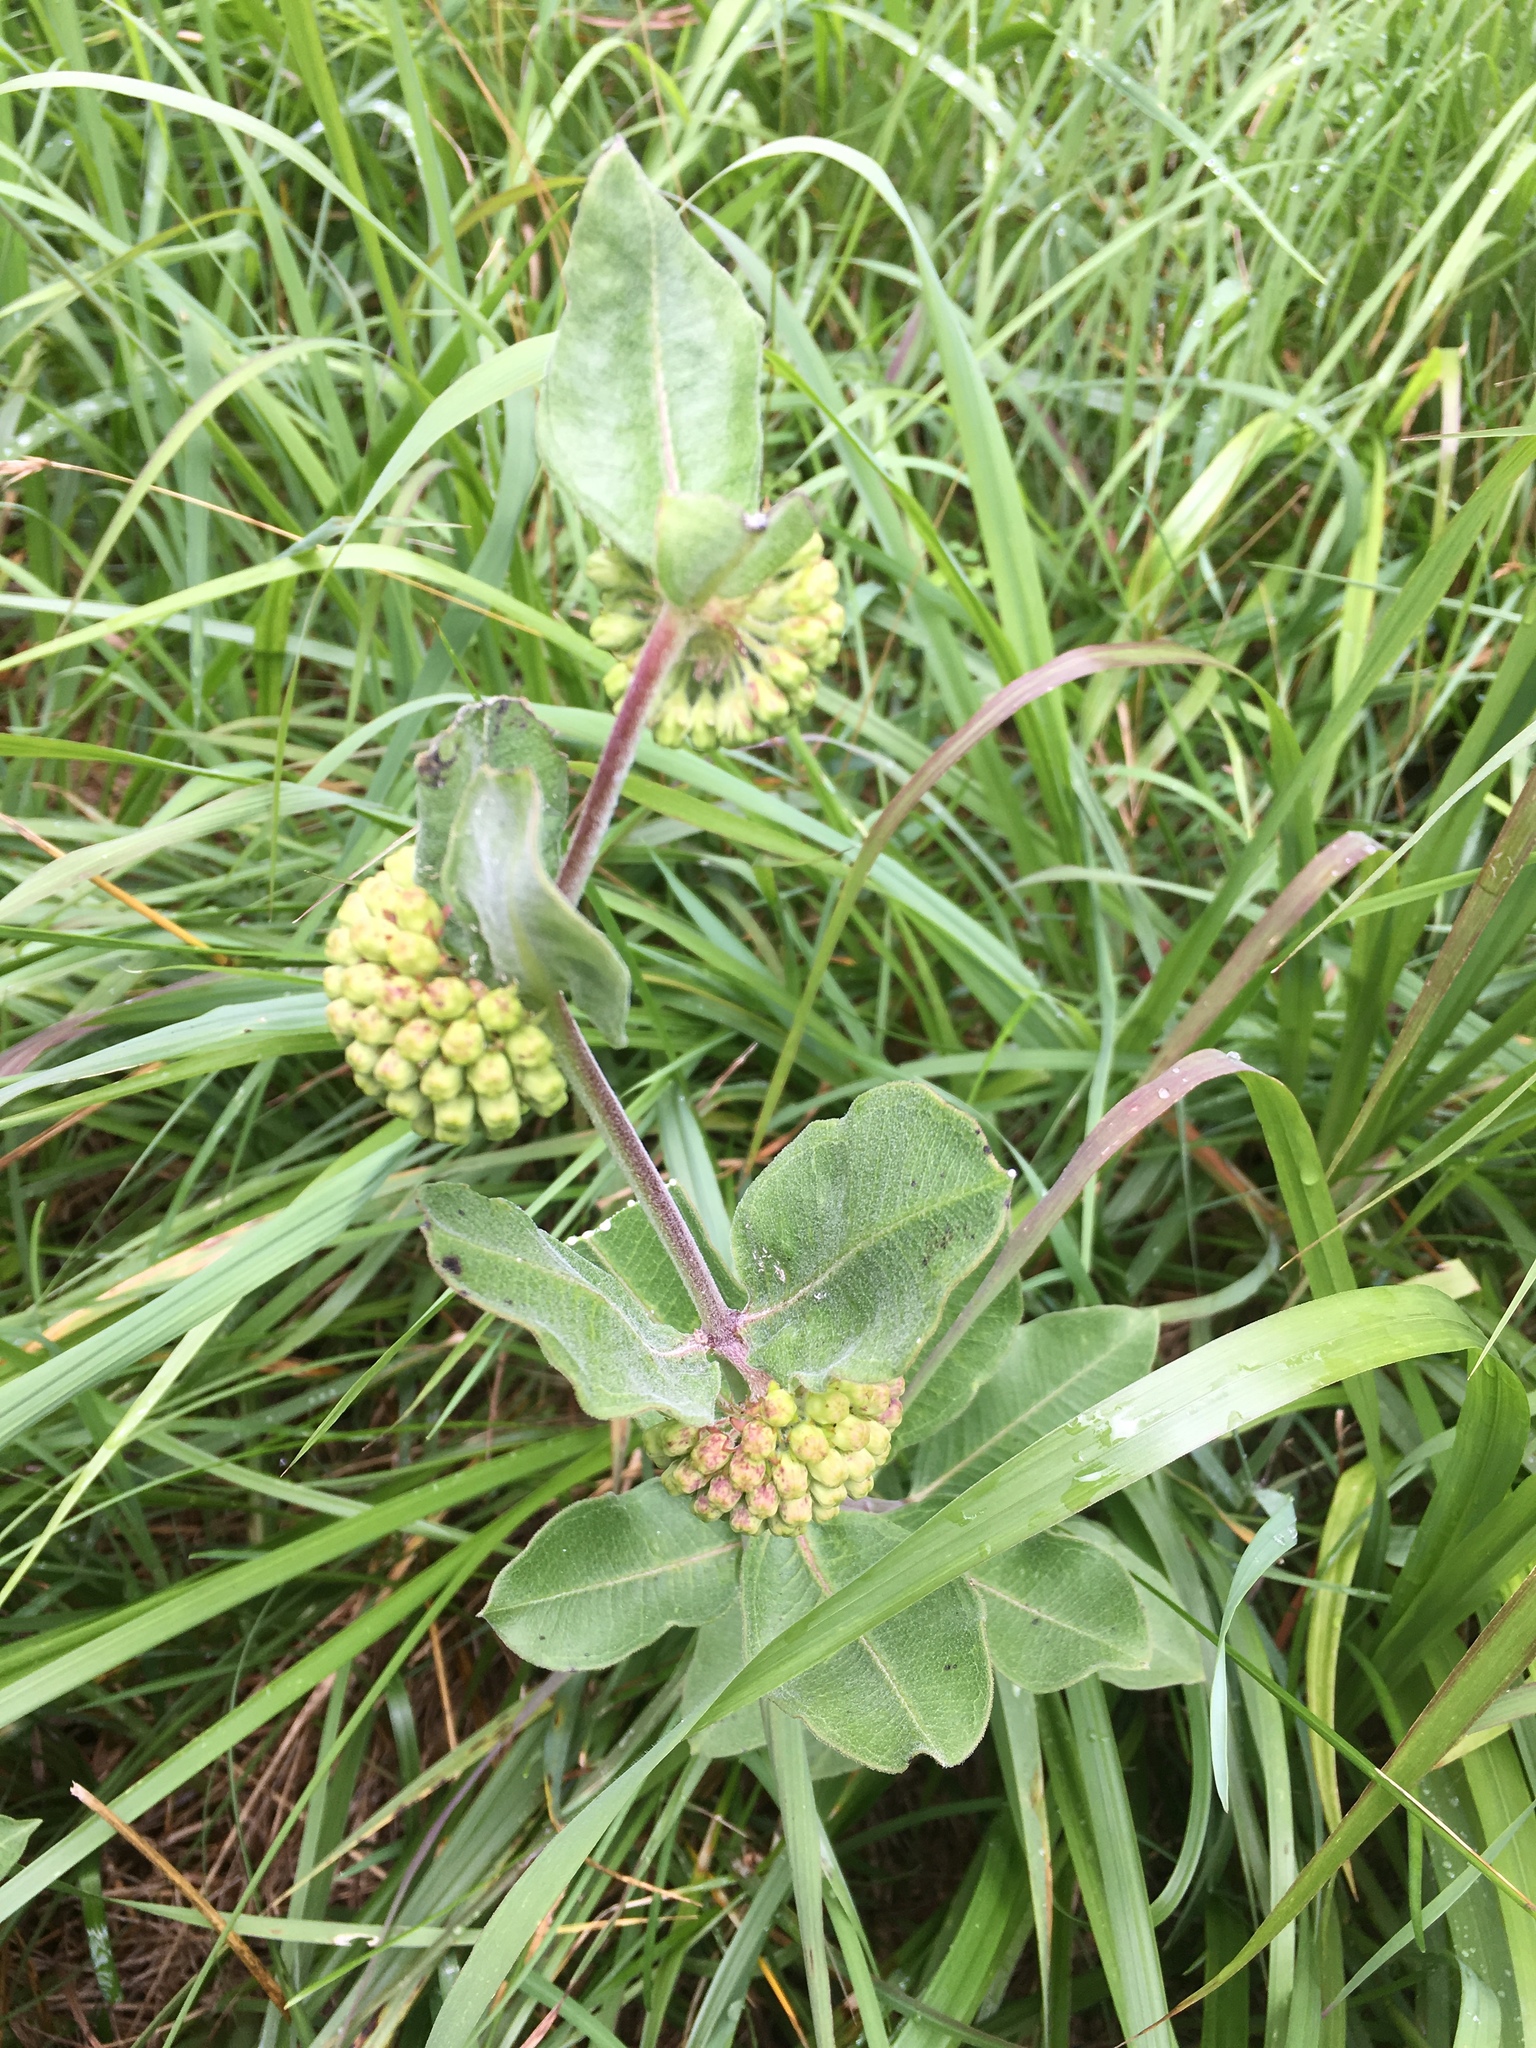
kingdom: Plantae
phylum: Tracheophyta
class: Magnoliopsida
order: Gentianales
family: Apocynaceae
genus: Asclepias
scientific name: Asclepias viridiflora
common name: Green comet milkweed
